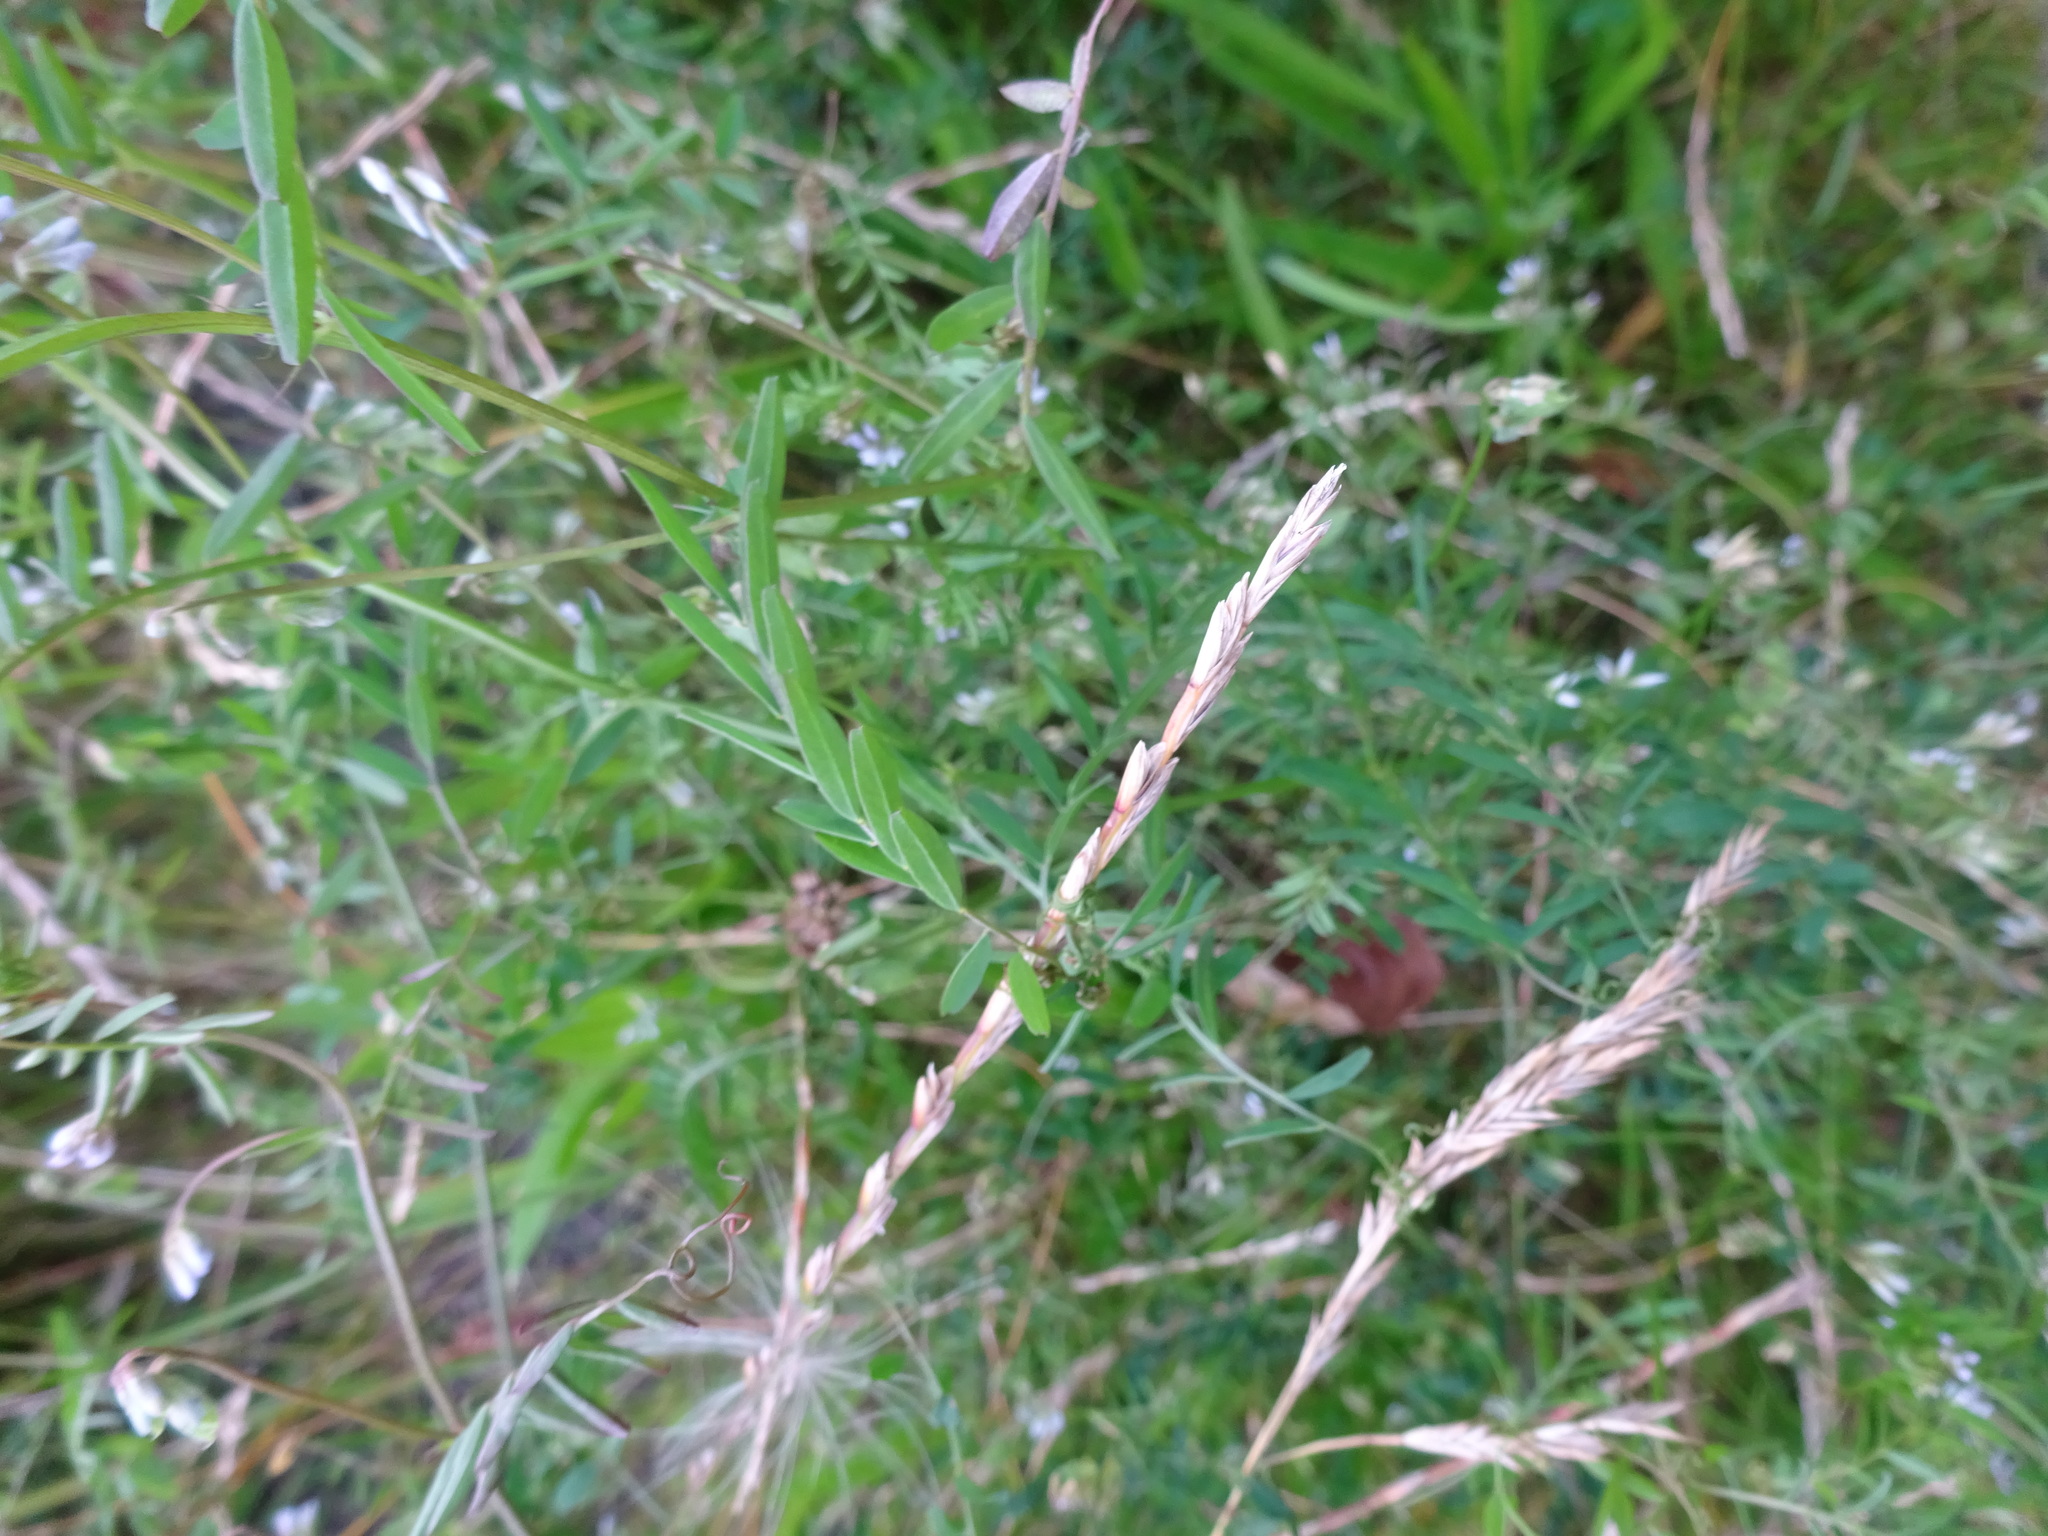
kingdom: Plantae
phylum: Tracheophyta
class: Magnoliopsida
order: Fabales
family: Fabaceae
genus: Vicia
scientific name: Vicia hirsuta
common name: Tiny vetch
